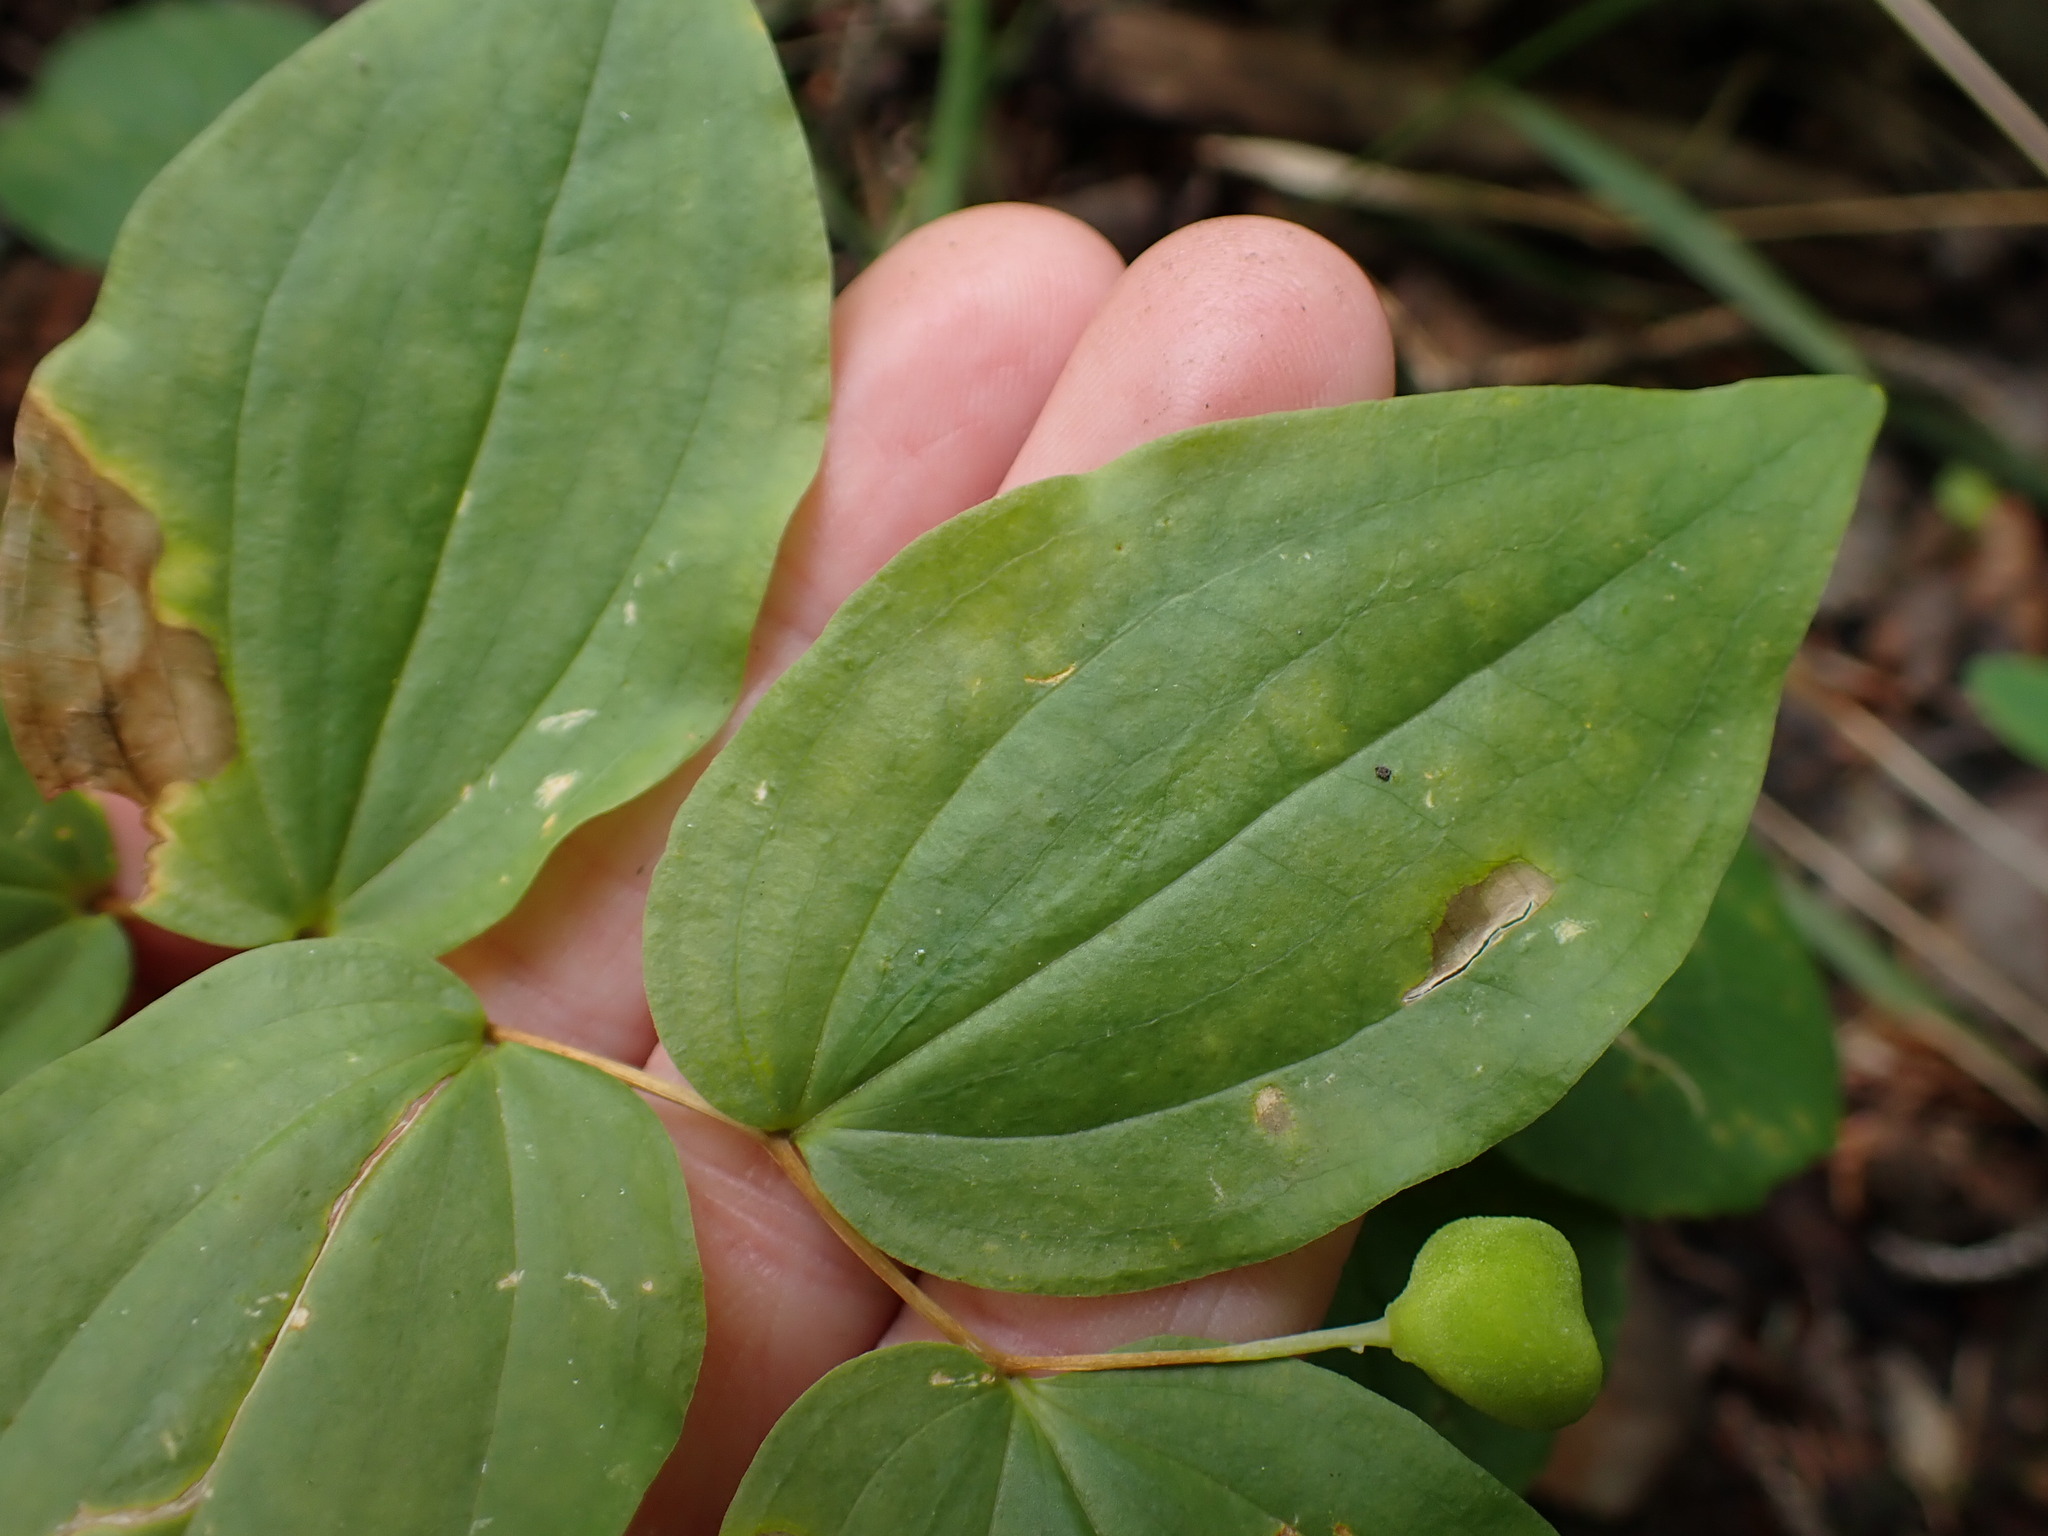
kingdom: Plantae
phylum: Tracheophyta
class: Liliopsida
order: Liliales
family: Liliaceae
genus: Prosartes
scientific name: Prosartes trachycarpa
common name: Rough-fruit fairy-bells
